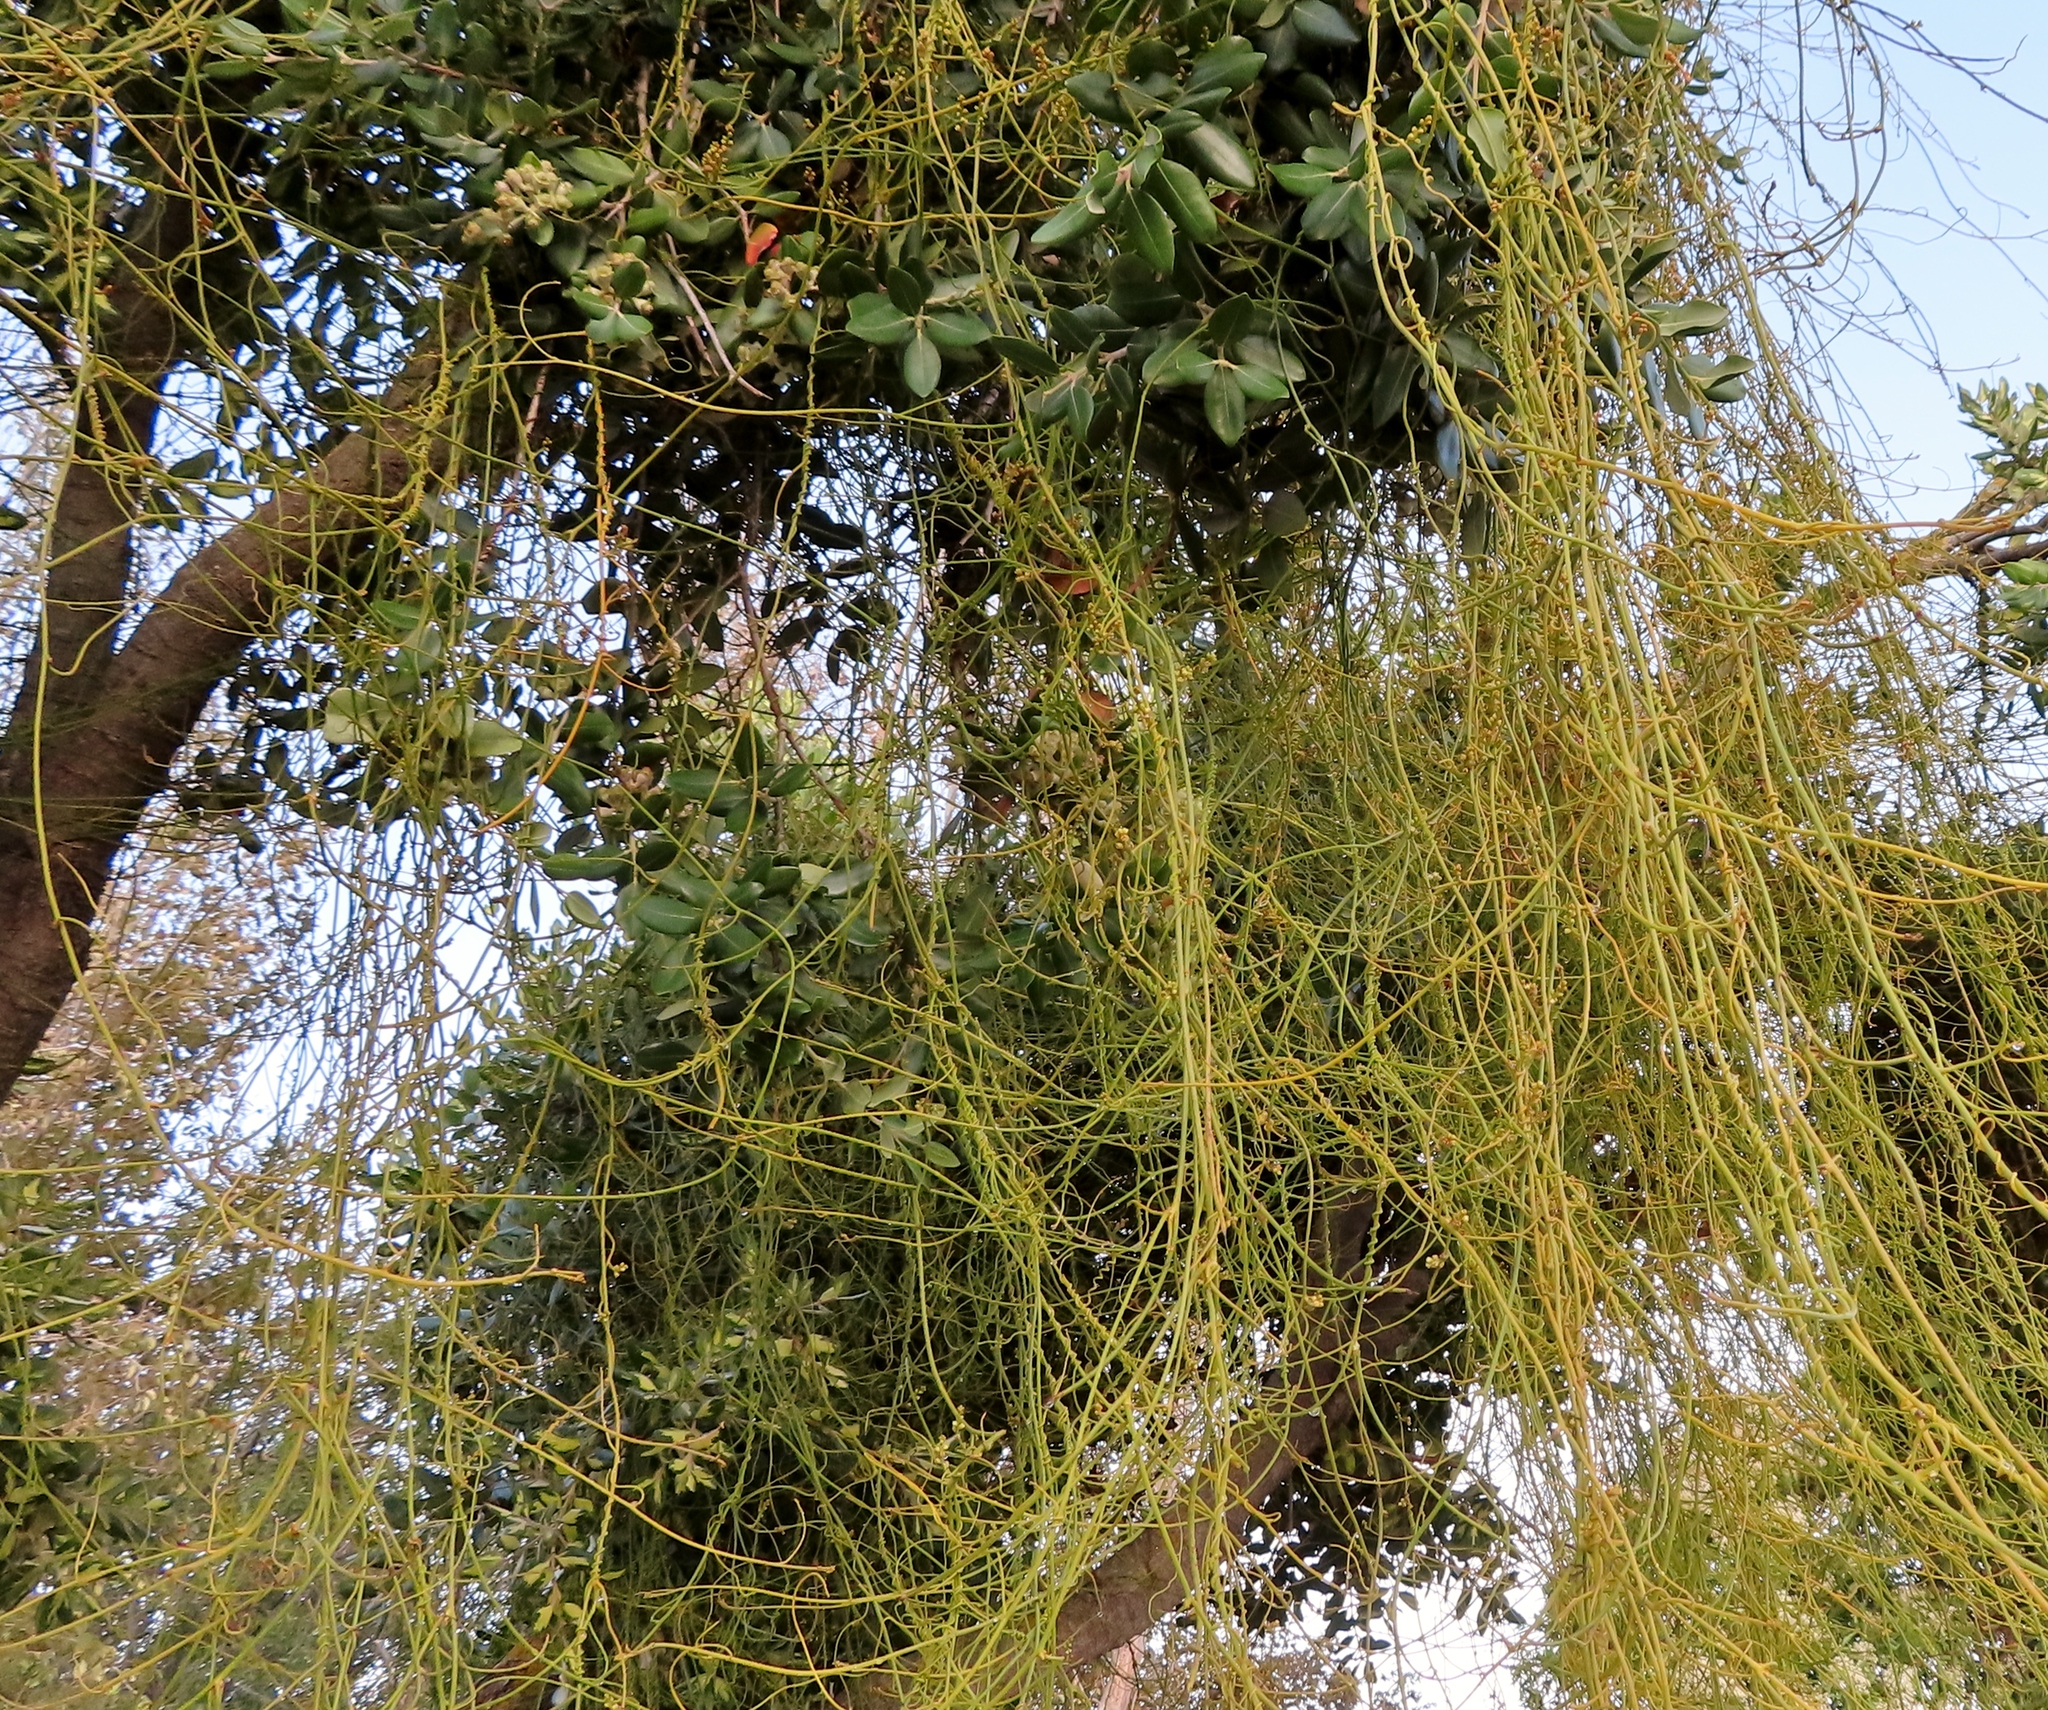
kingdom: Plantae
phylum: Tracheophyta
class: Magnoliopsida
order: Laurales
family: Lauraceae
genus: Cassytha
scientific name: Cassytha ciliolata
